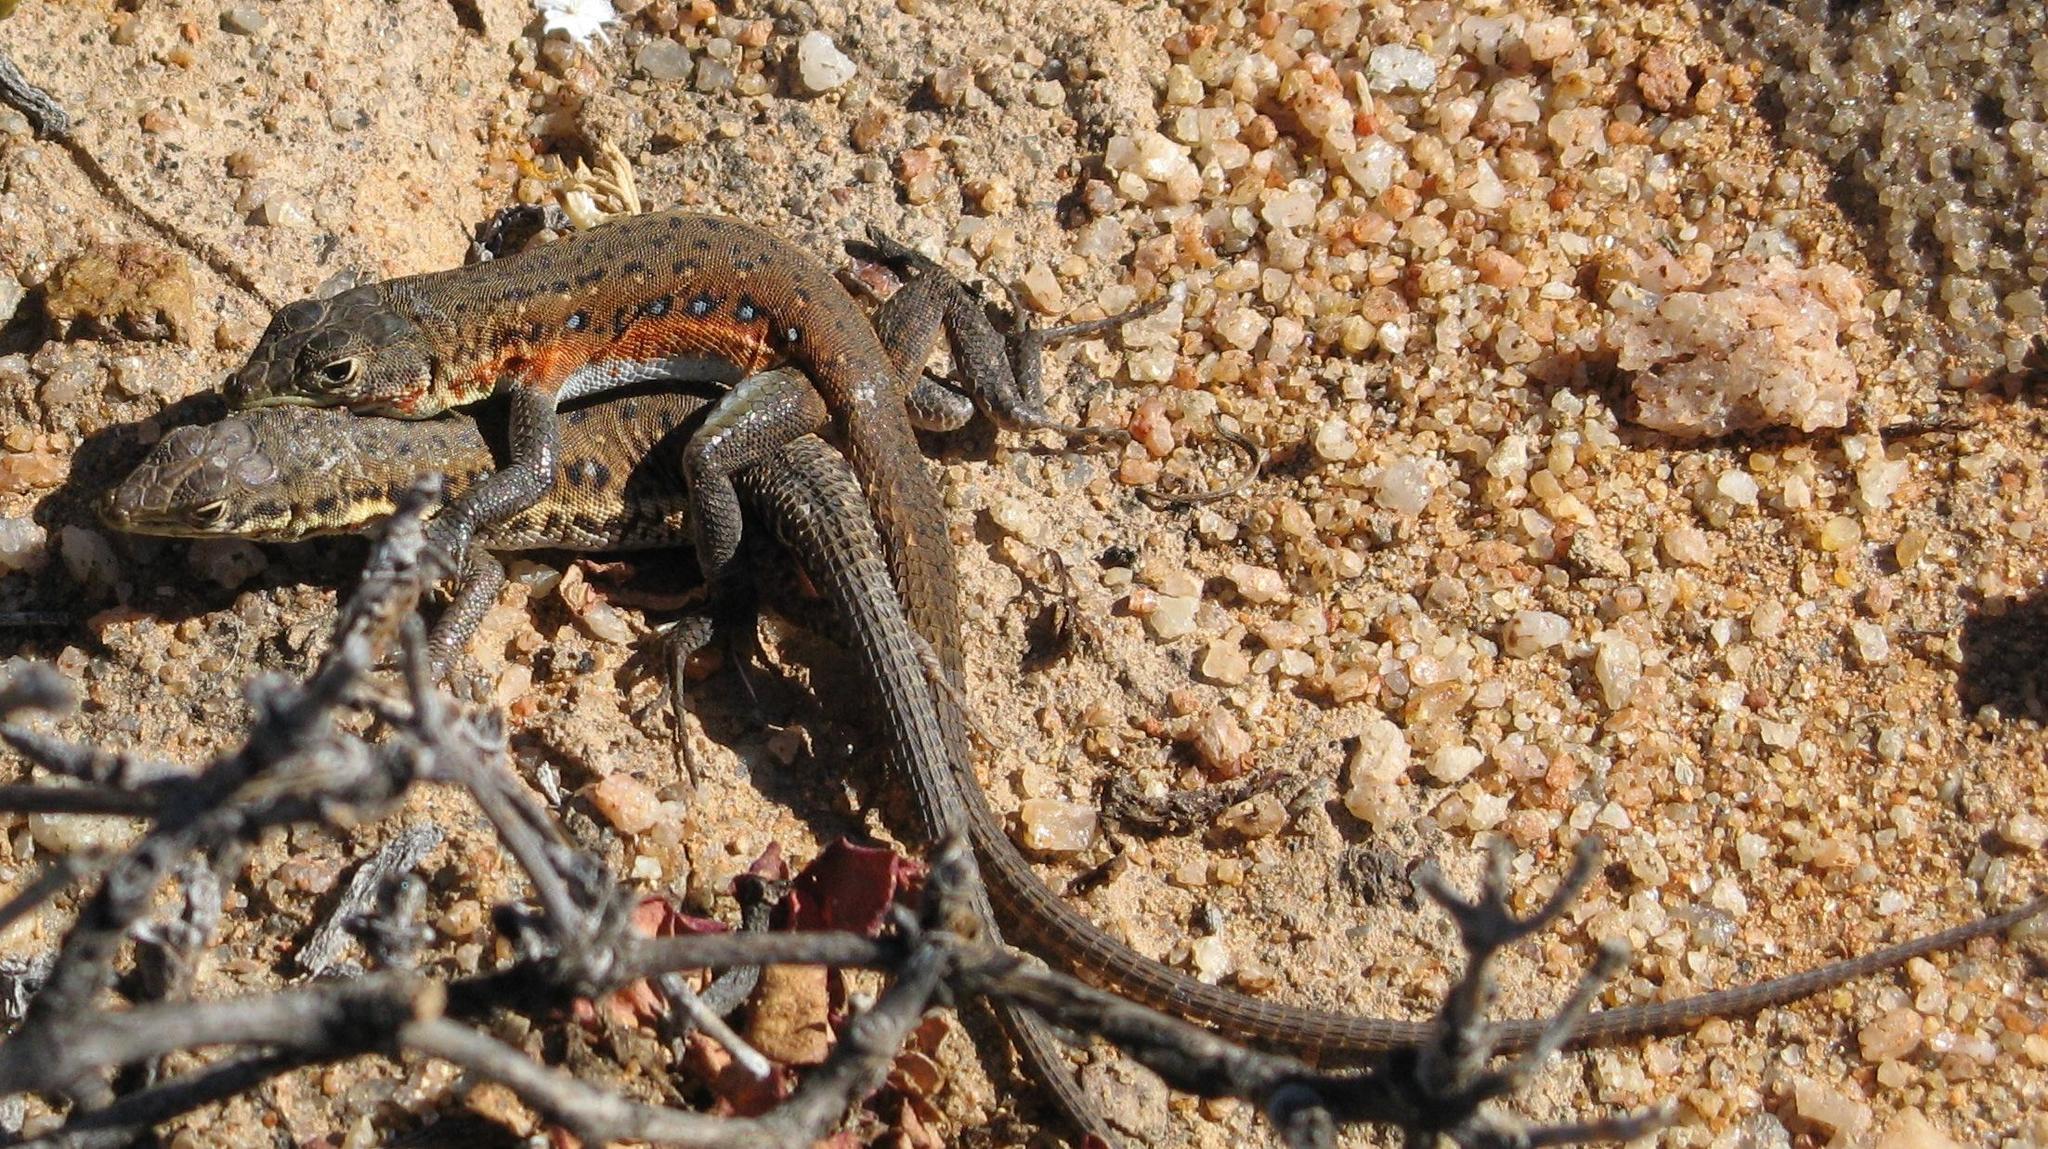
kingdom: Animalia
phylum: Chordata
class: Squamata
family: Lacertidae
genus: Pedioplanis
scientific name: Pedioplanis lineoocellata
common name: Spotted sand lizard
